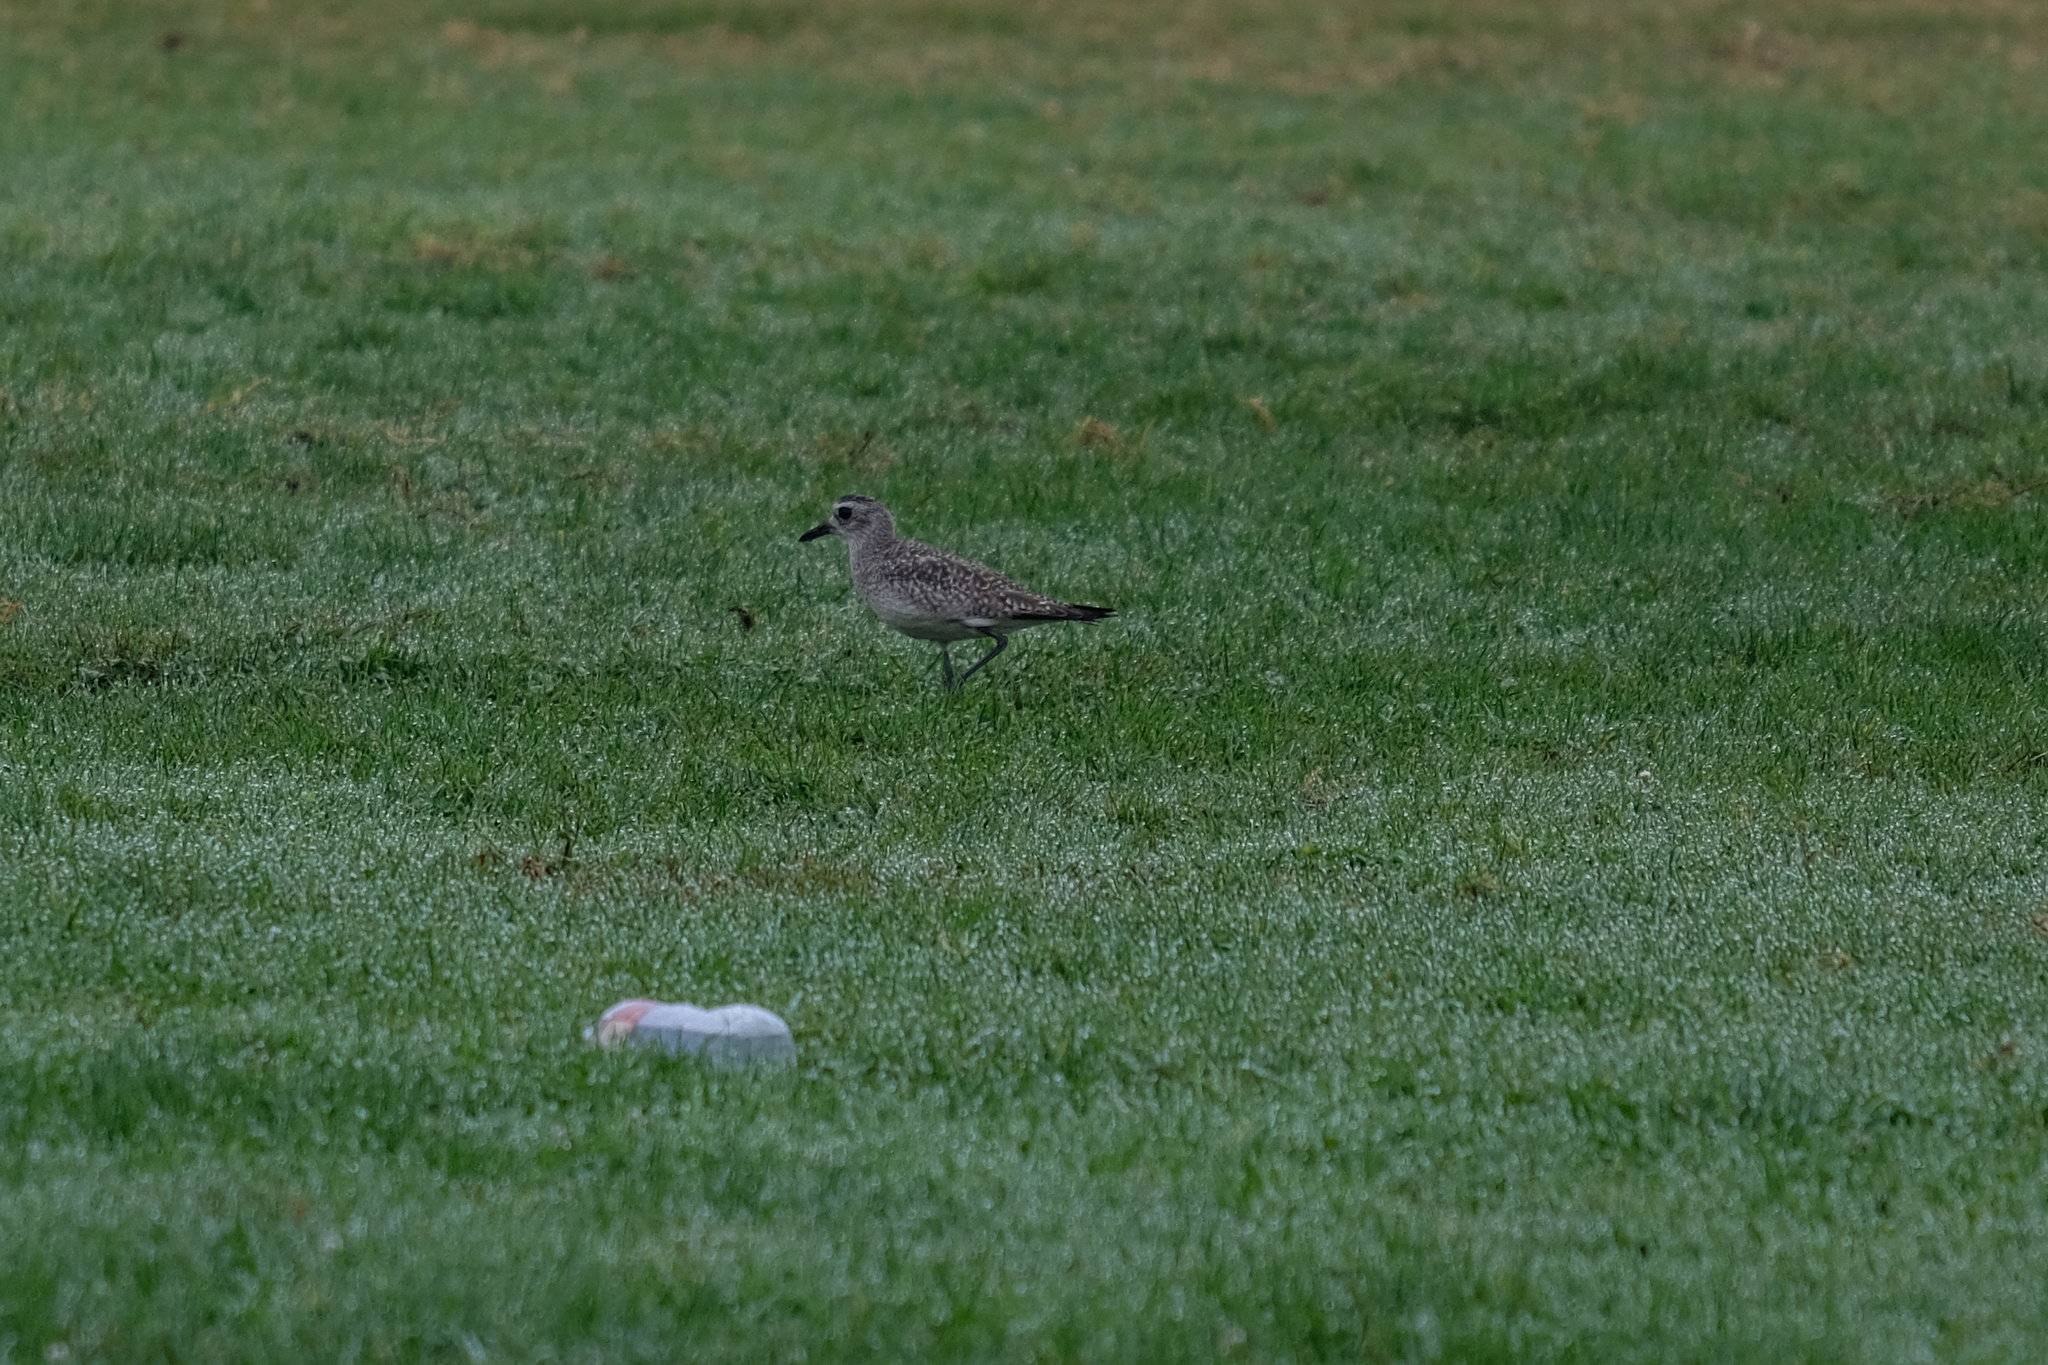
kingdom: Animalia
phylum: Chordata
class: Aves
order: Charadriiformes
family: Charadriidae
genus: Pluvialis
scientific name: Pluvialis squatarola
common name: Grey plover
